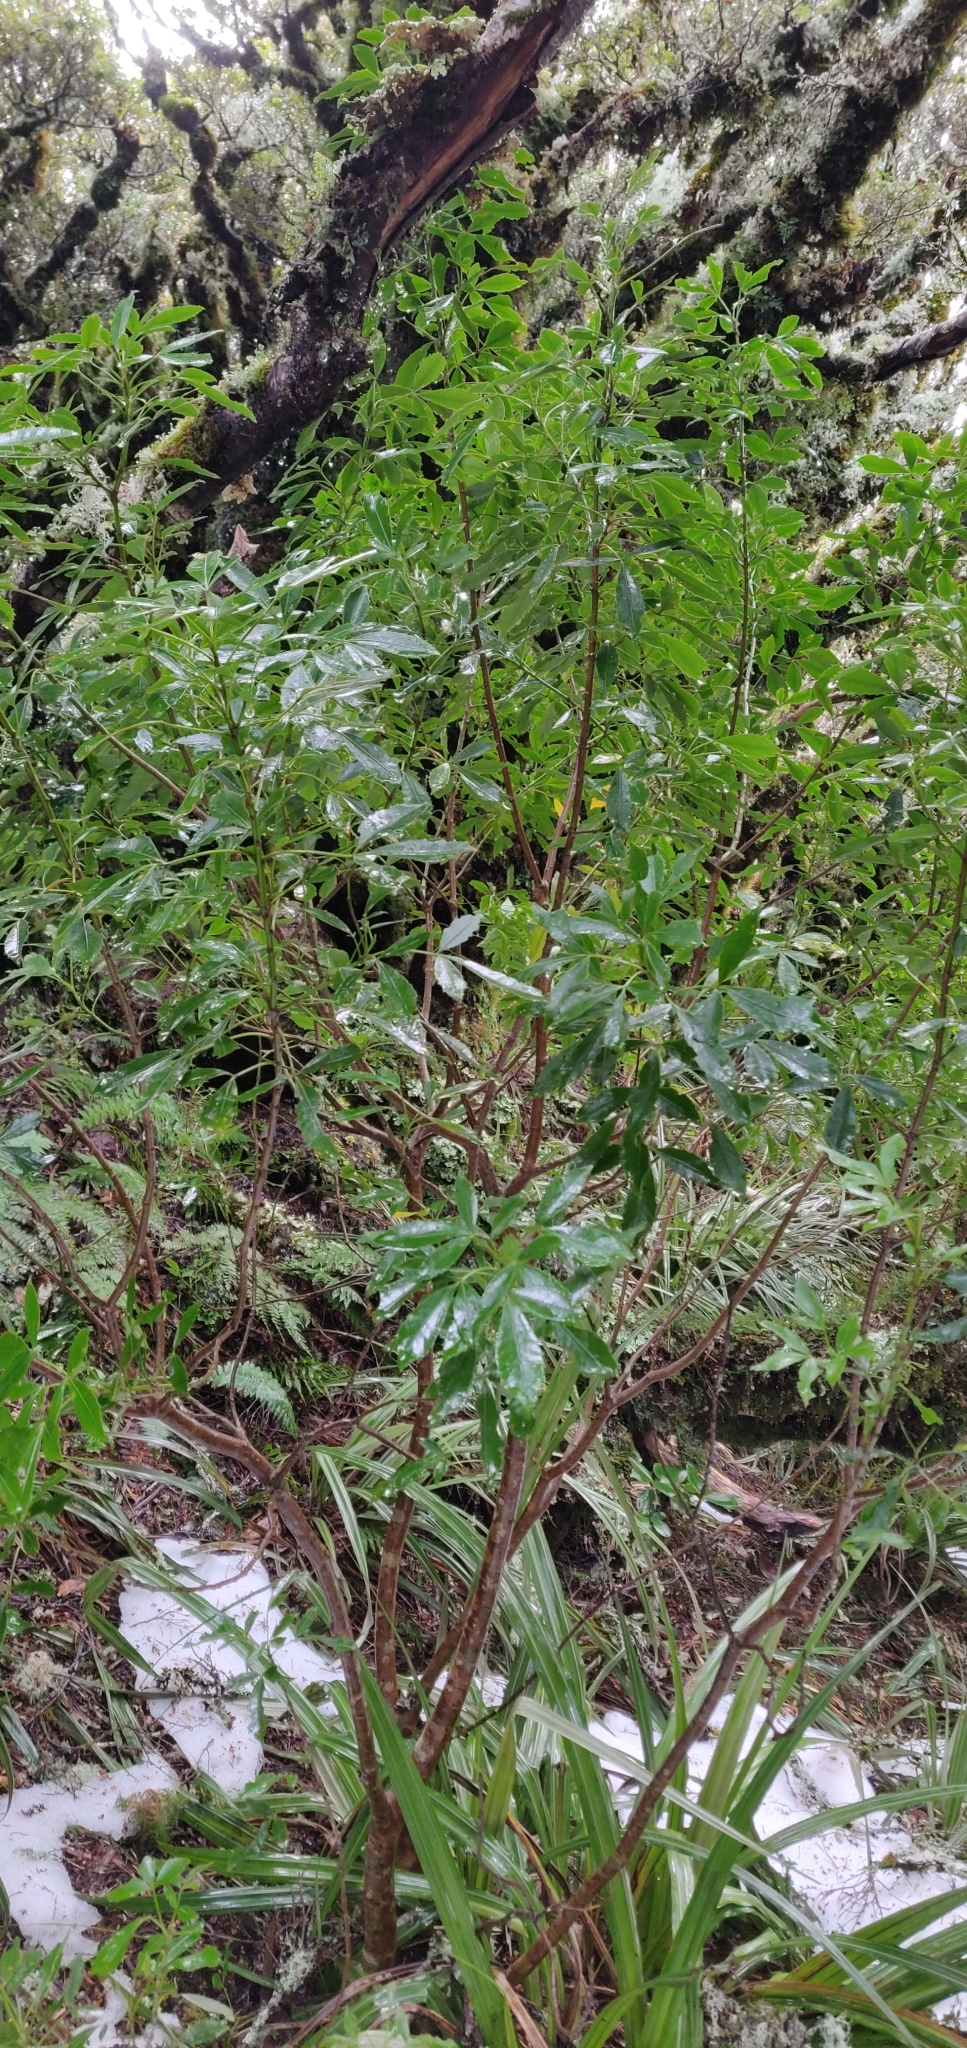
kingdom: Plantae
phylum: Tracheophyta
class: Magnoliopsida
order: Apiales
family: Araliaceae
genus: Neopanax
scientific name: Neopanax colensoi
